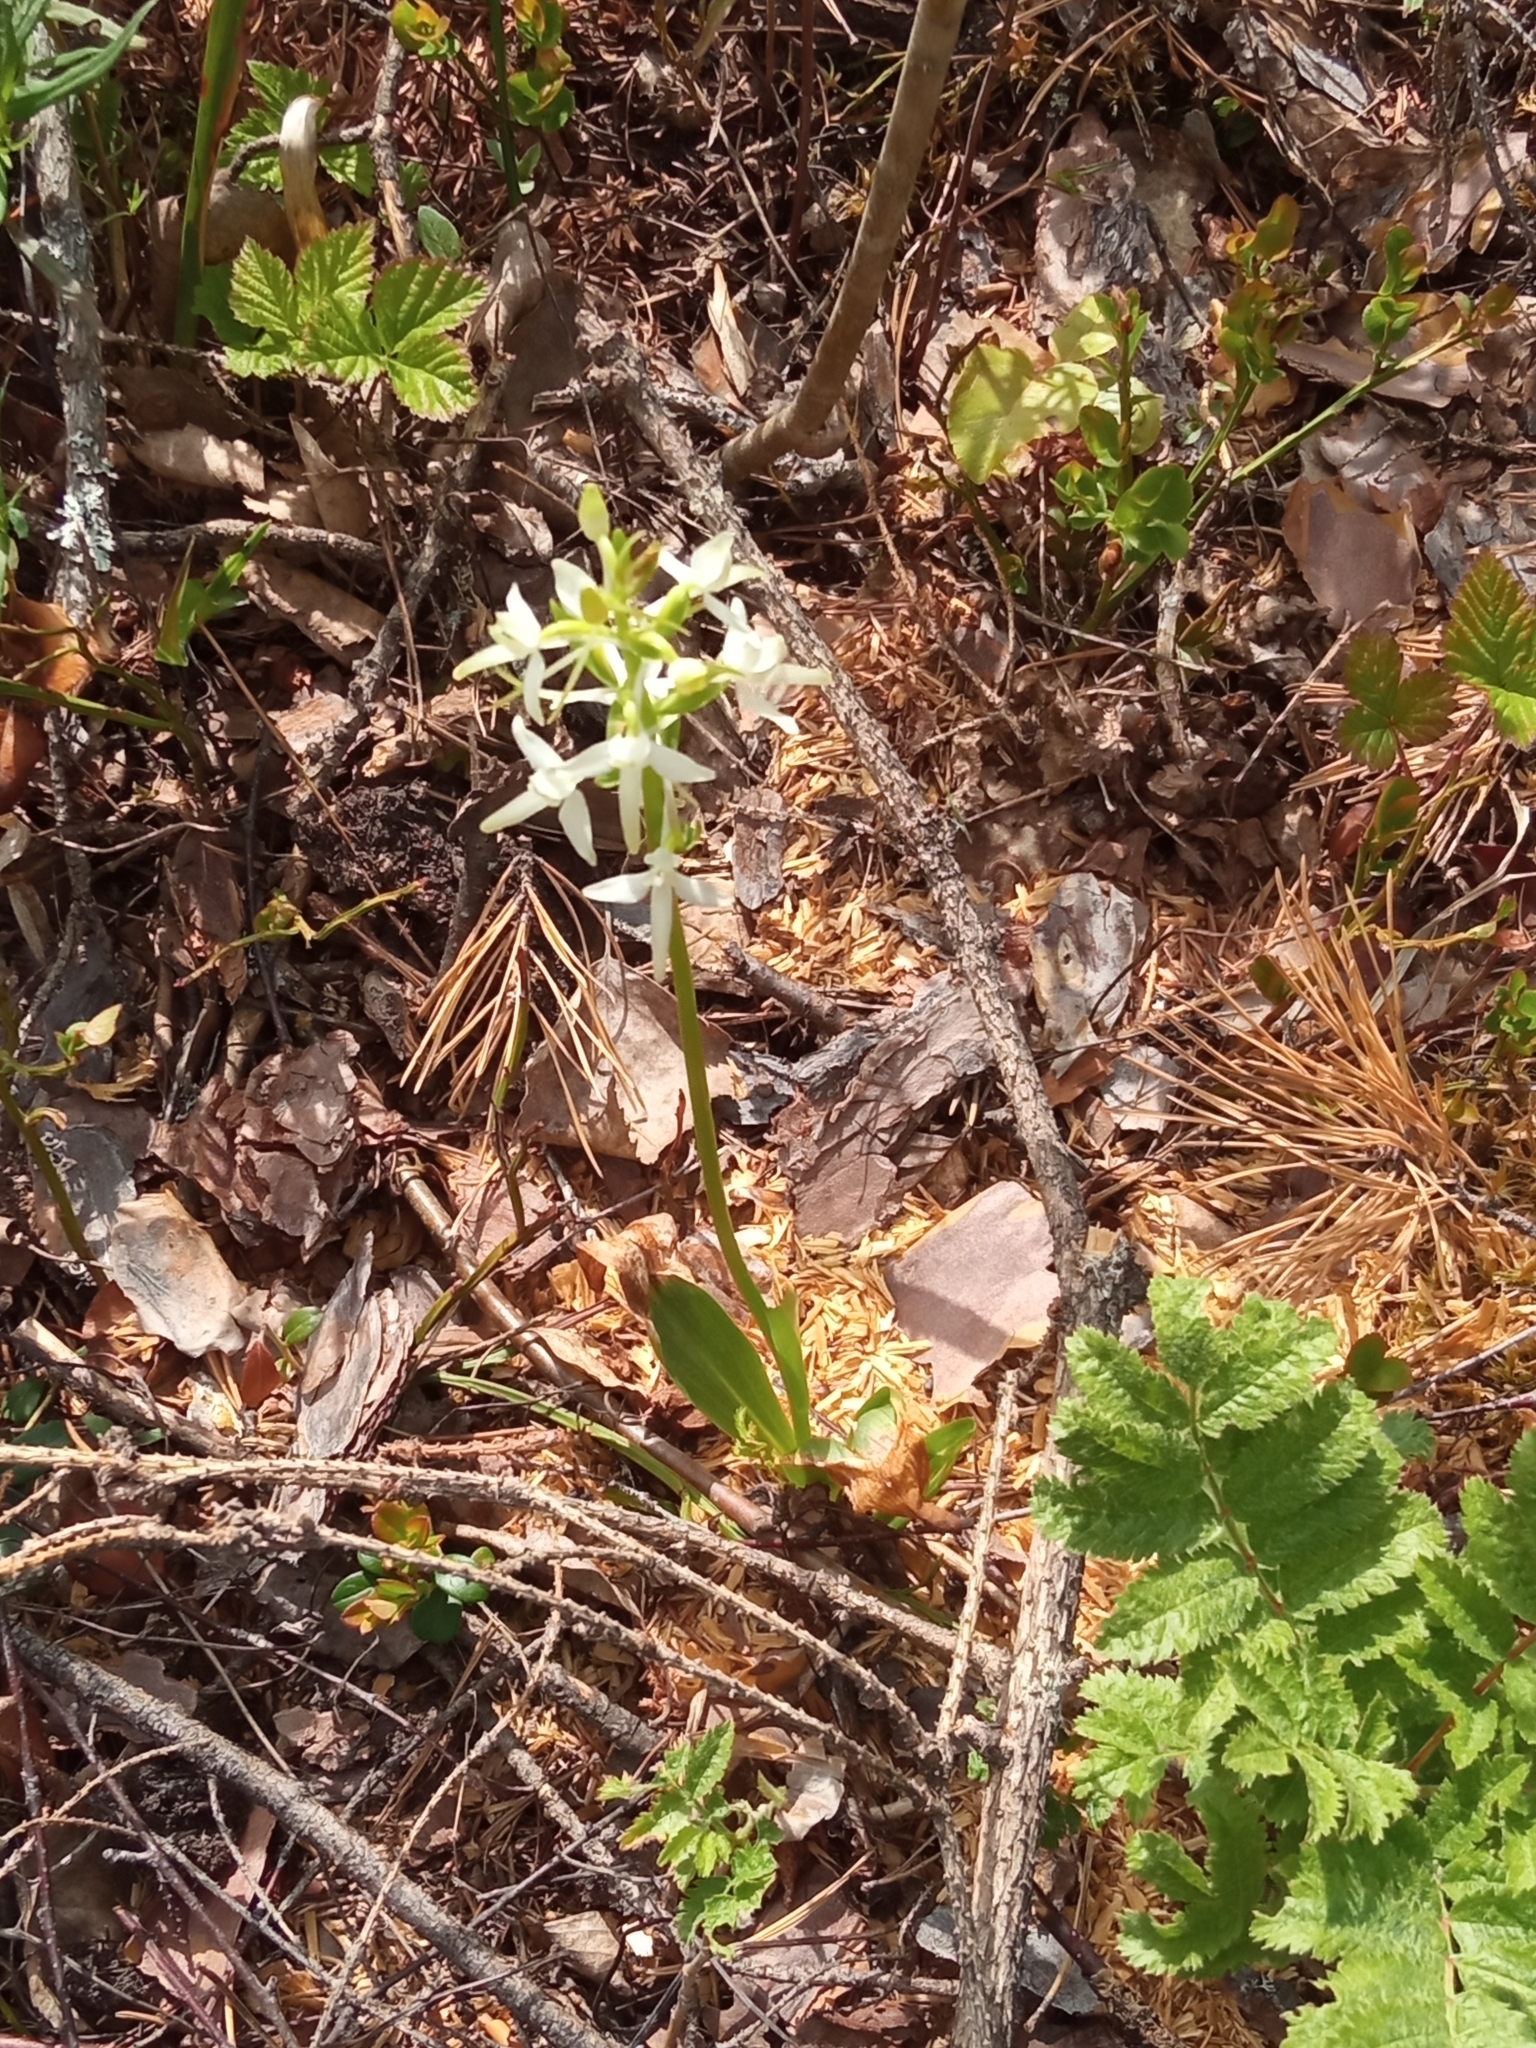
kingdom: Plantae
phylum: Tracheophyta
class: Liliopsida
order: Asparagales
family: Orchidaceae
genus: Platanthera
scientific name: Platanthera bifolia
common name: Lesser butterfly-orchid
